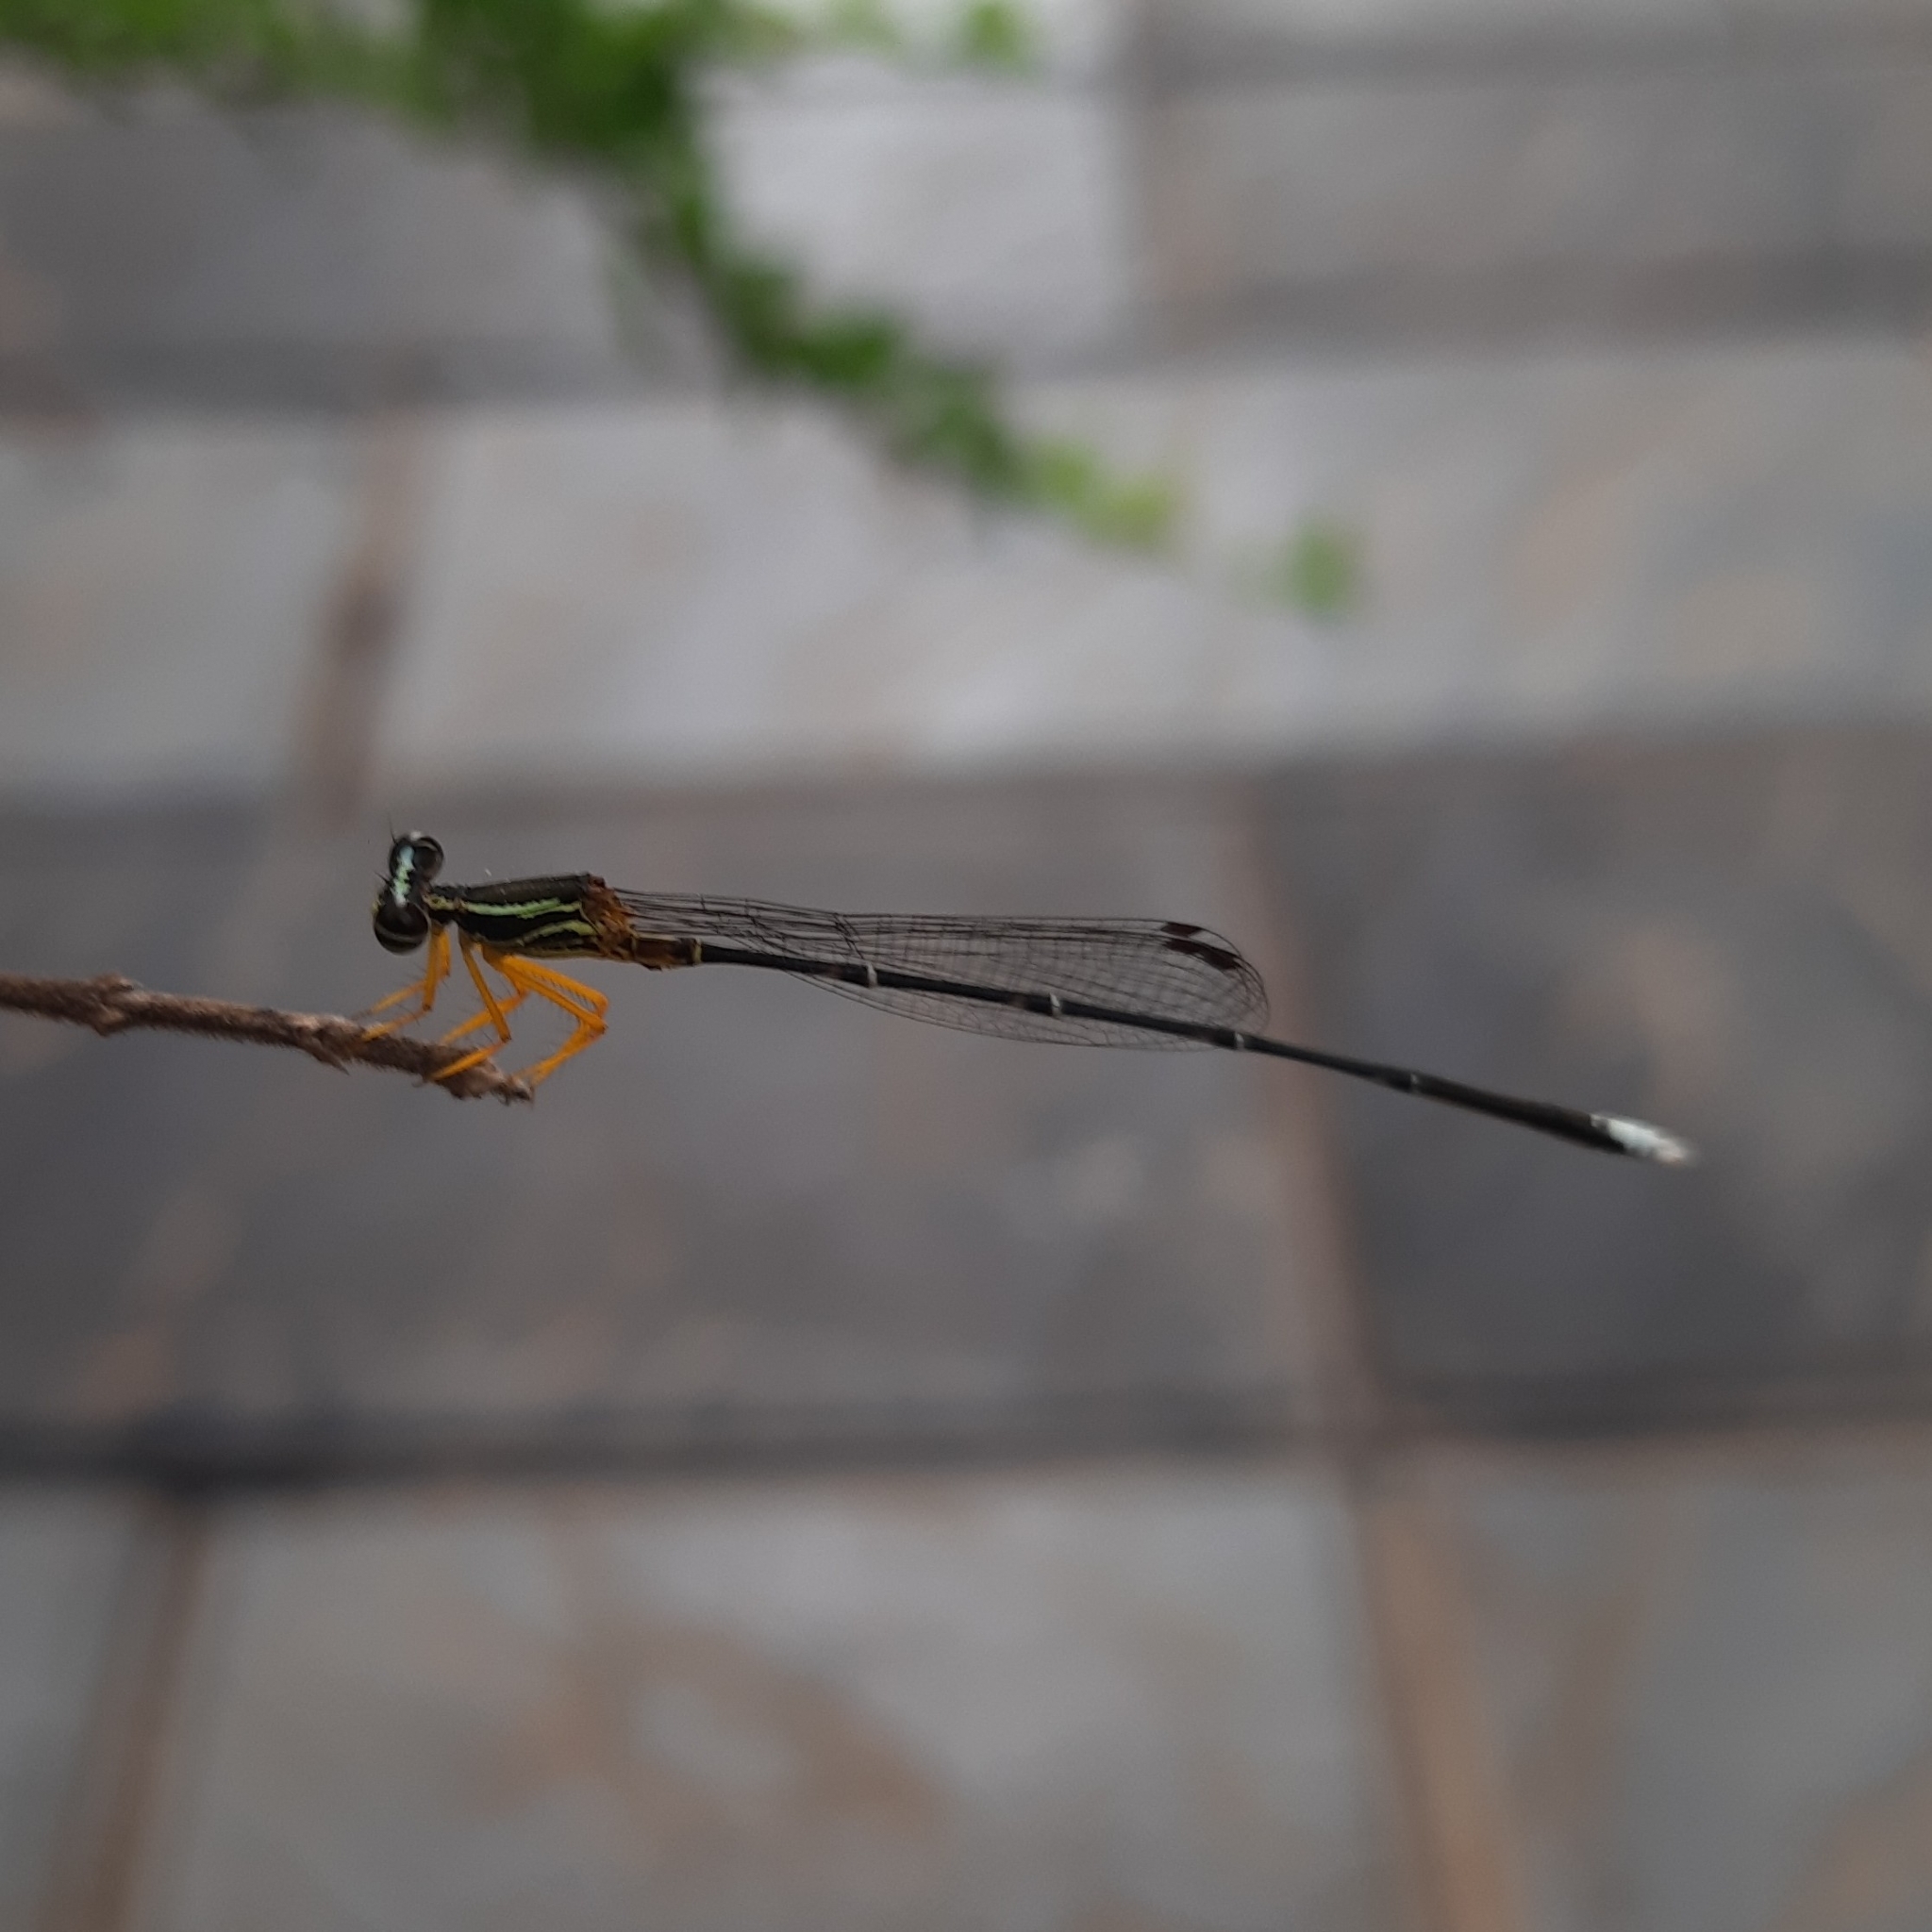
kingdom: Animalia
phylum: Arthropoda
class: Insecta
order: Odonata
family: Platycnemididae
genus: Copera
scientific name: Copera vittata
